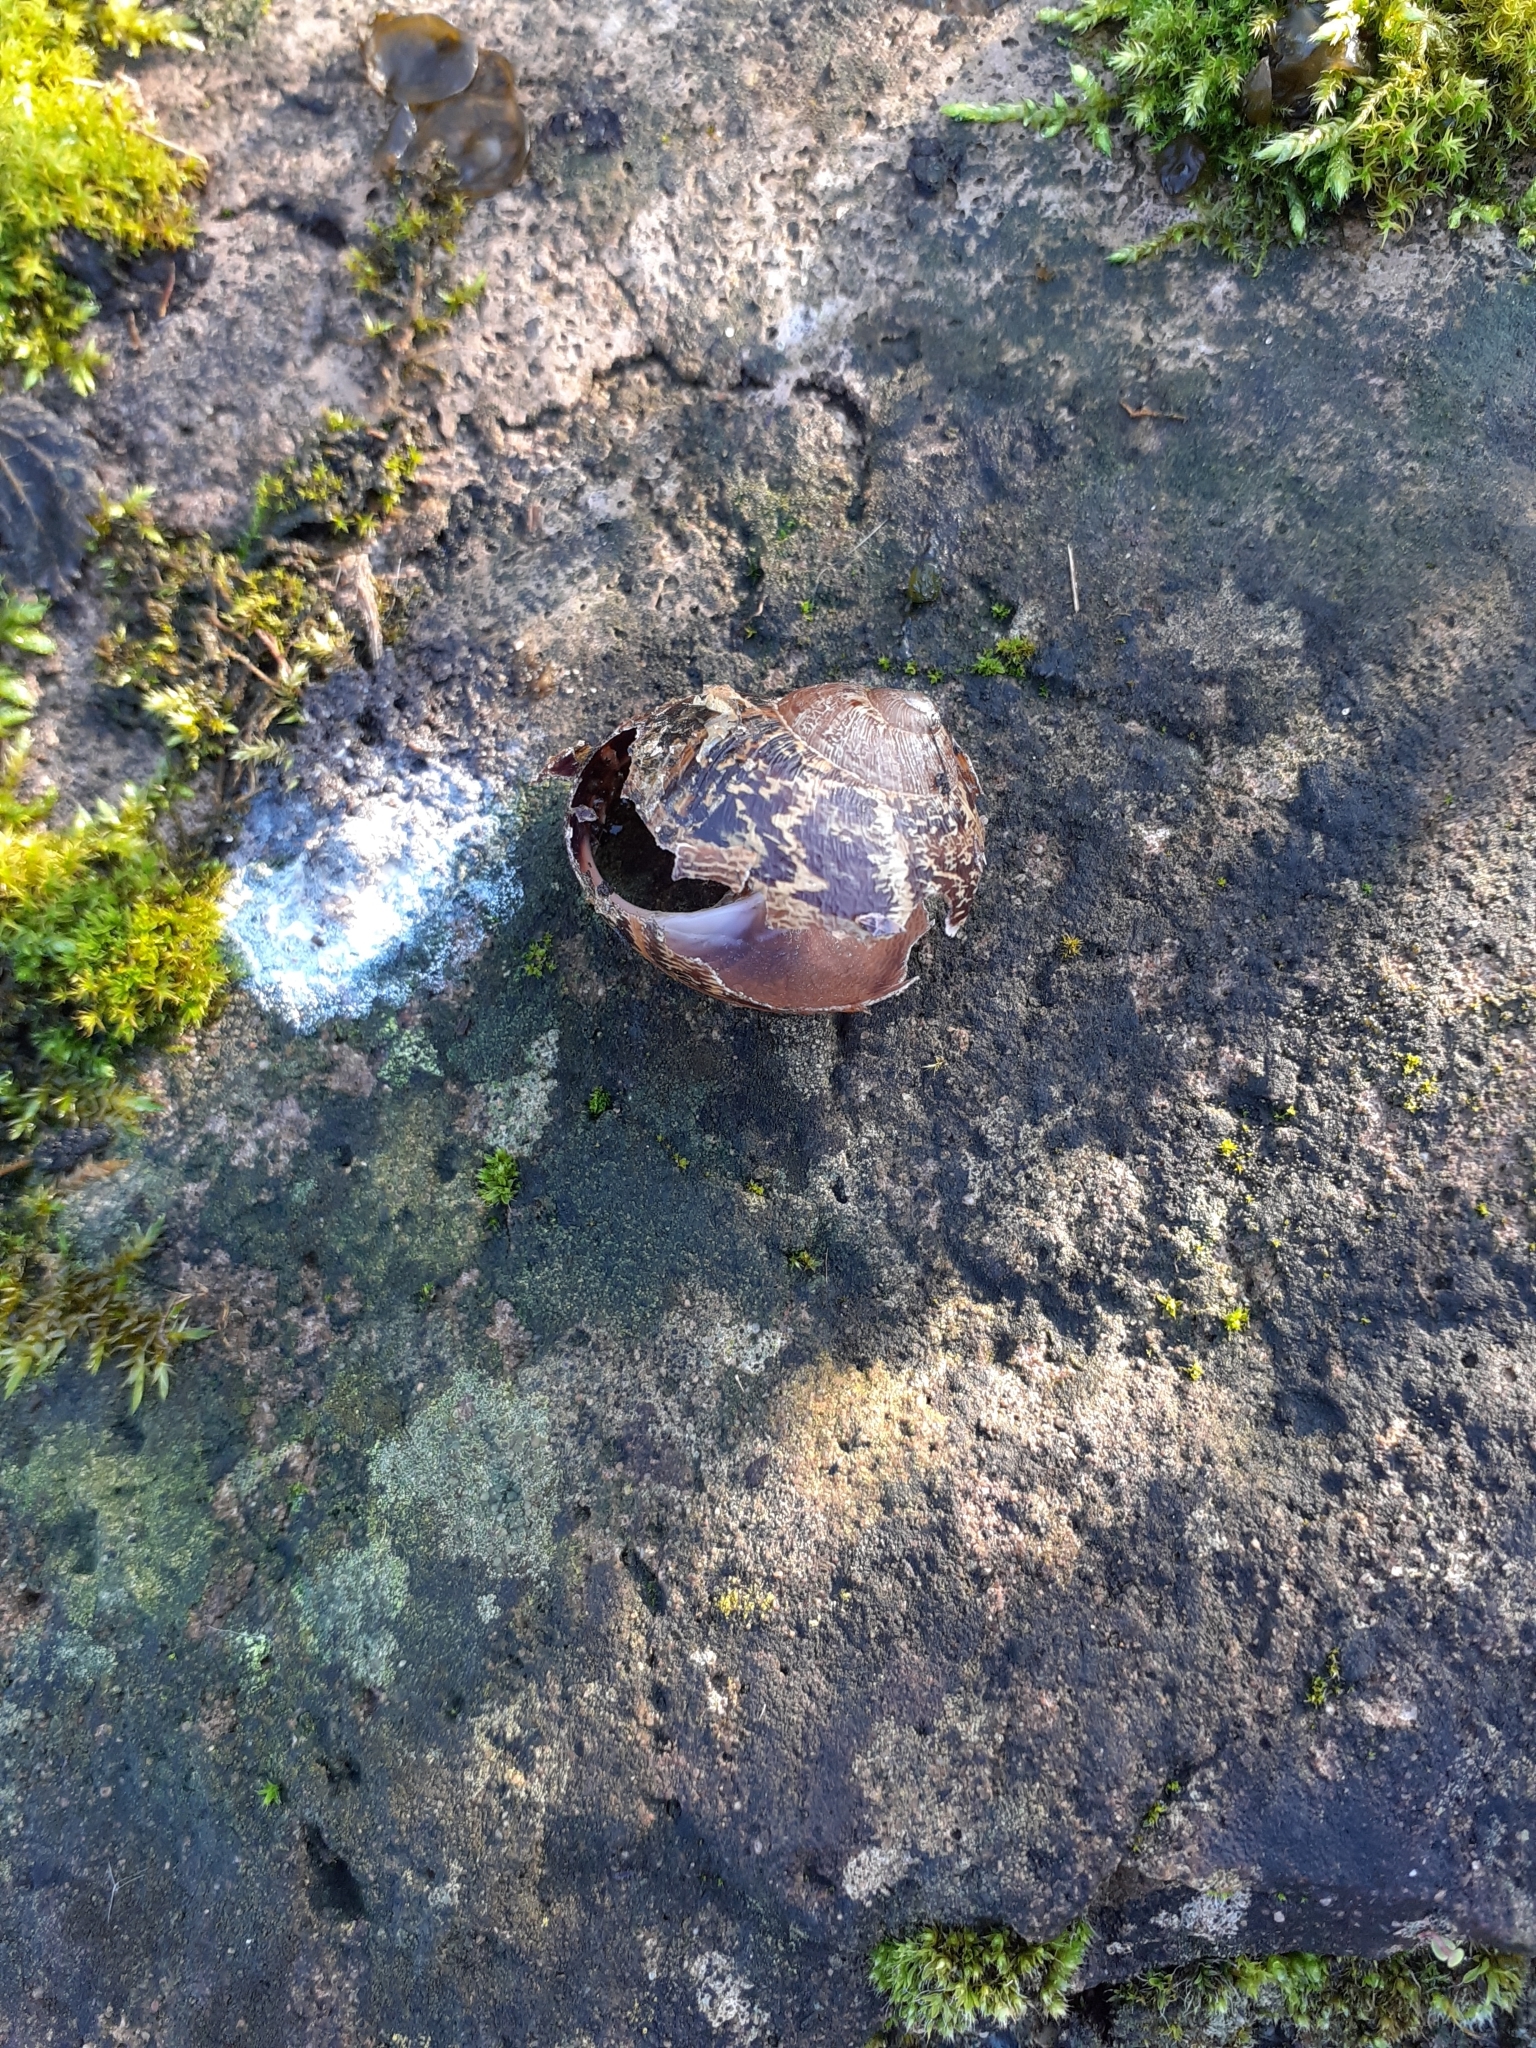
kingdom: Animalia
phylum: Mollusca
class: Gastropoda
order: Stylommatophora
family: Helicidae
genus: Cornu
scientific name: Cornu aspersum
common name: Brown garden snail
